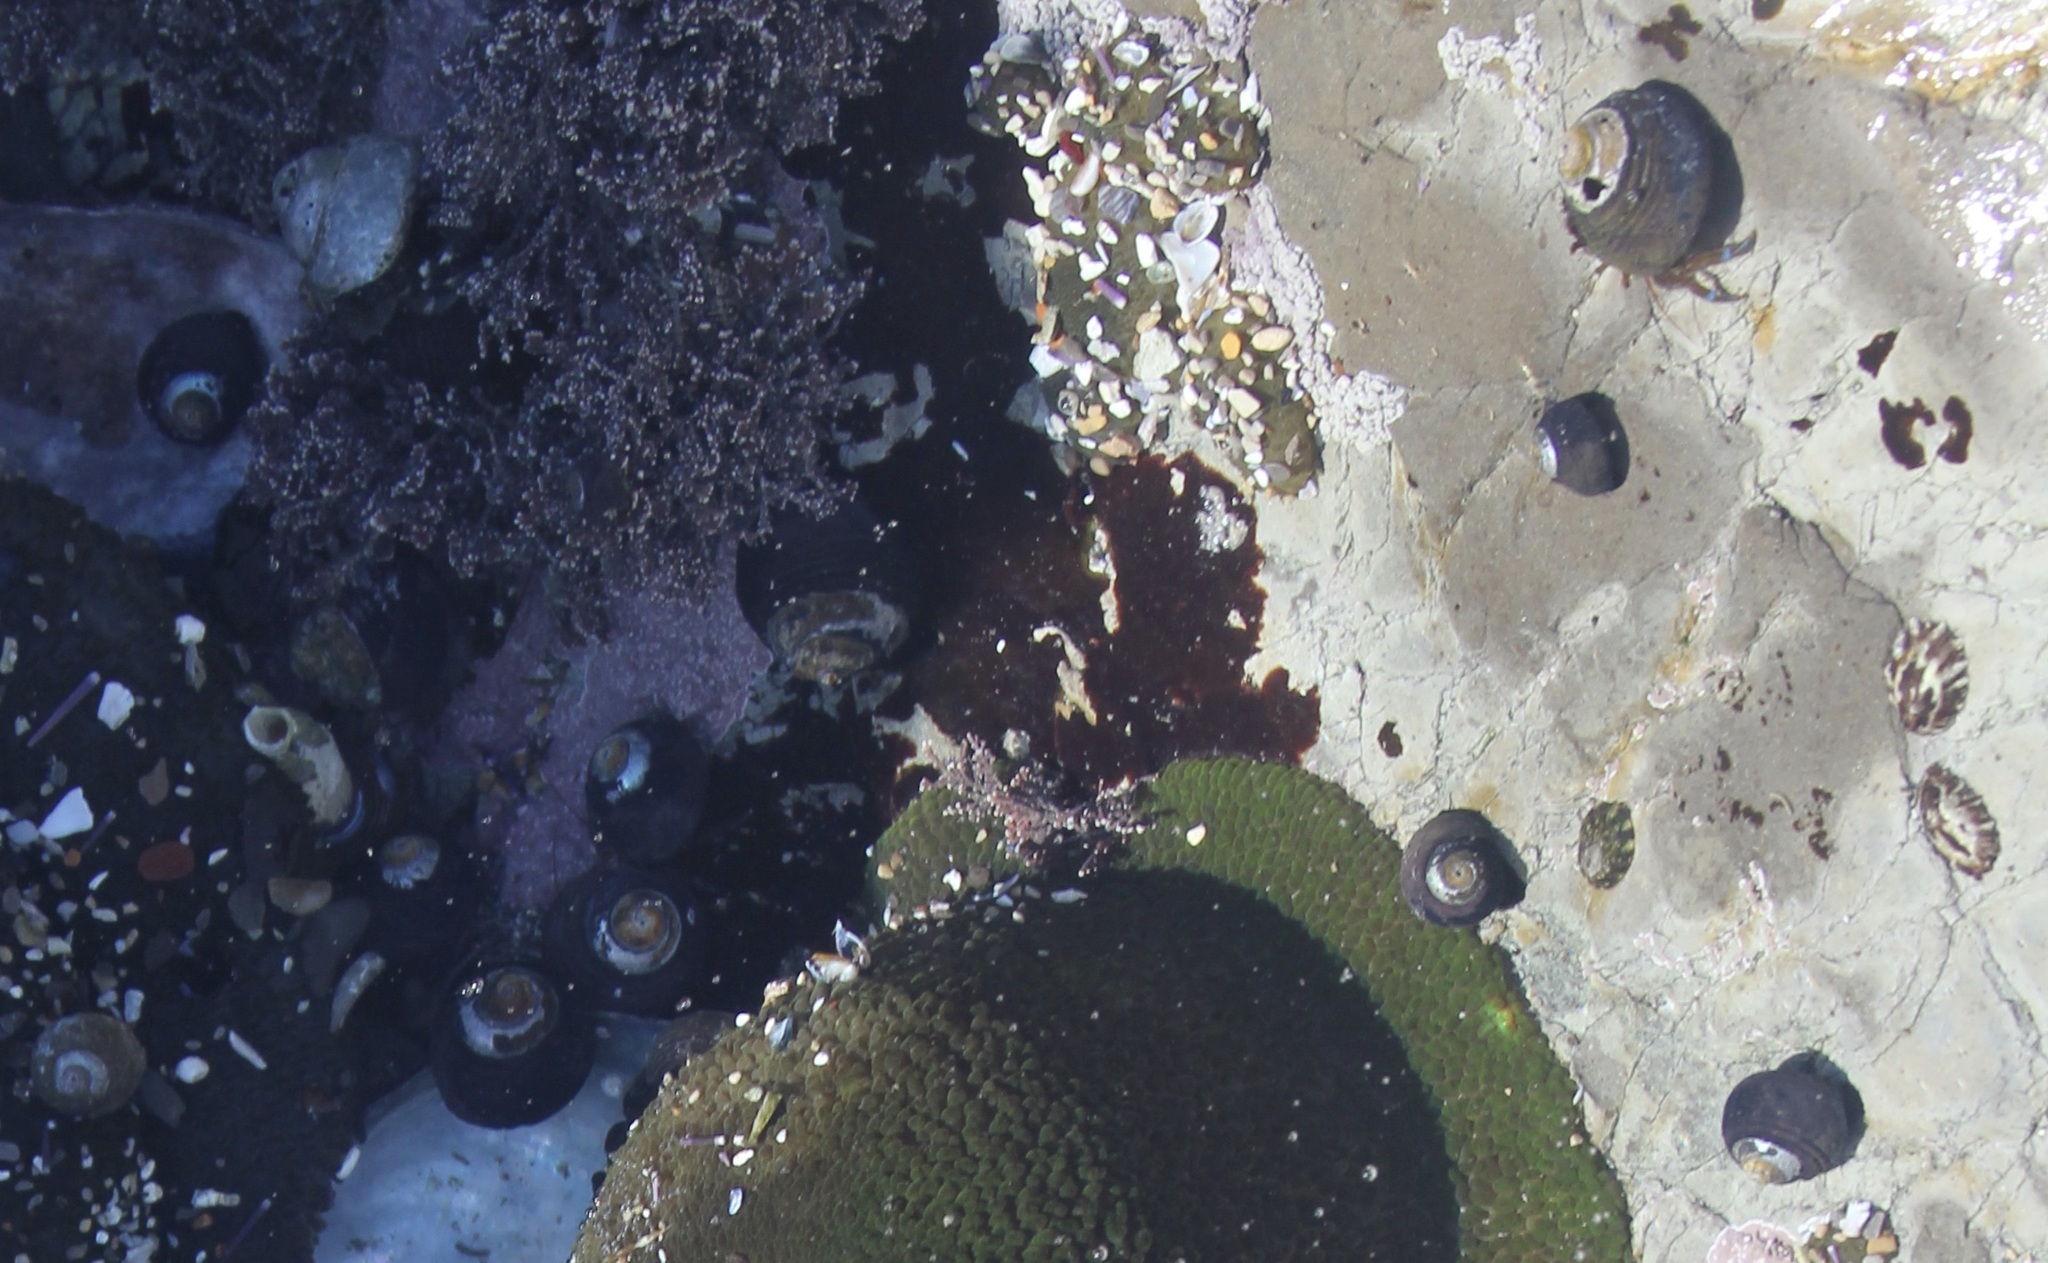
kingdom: Animalia
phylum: Mollusca
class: Gastropoda
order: Trochida
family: Tegulidae
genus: Tegula
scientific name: Tegula funebralis
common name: Black tegula
